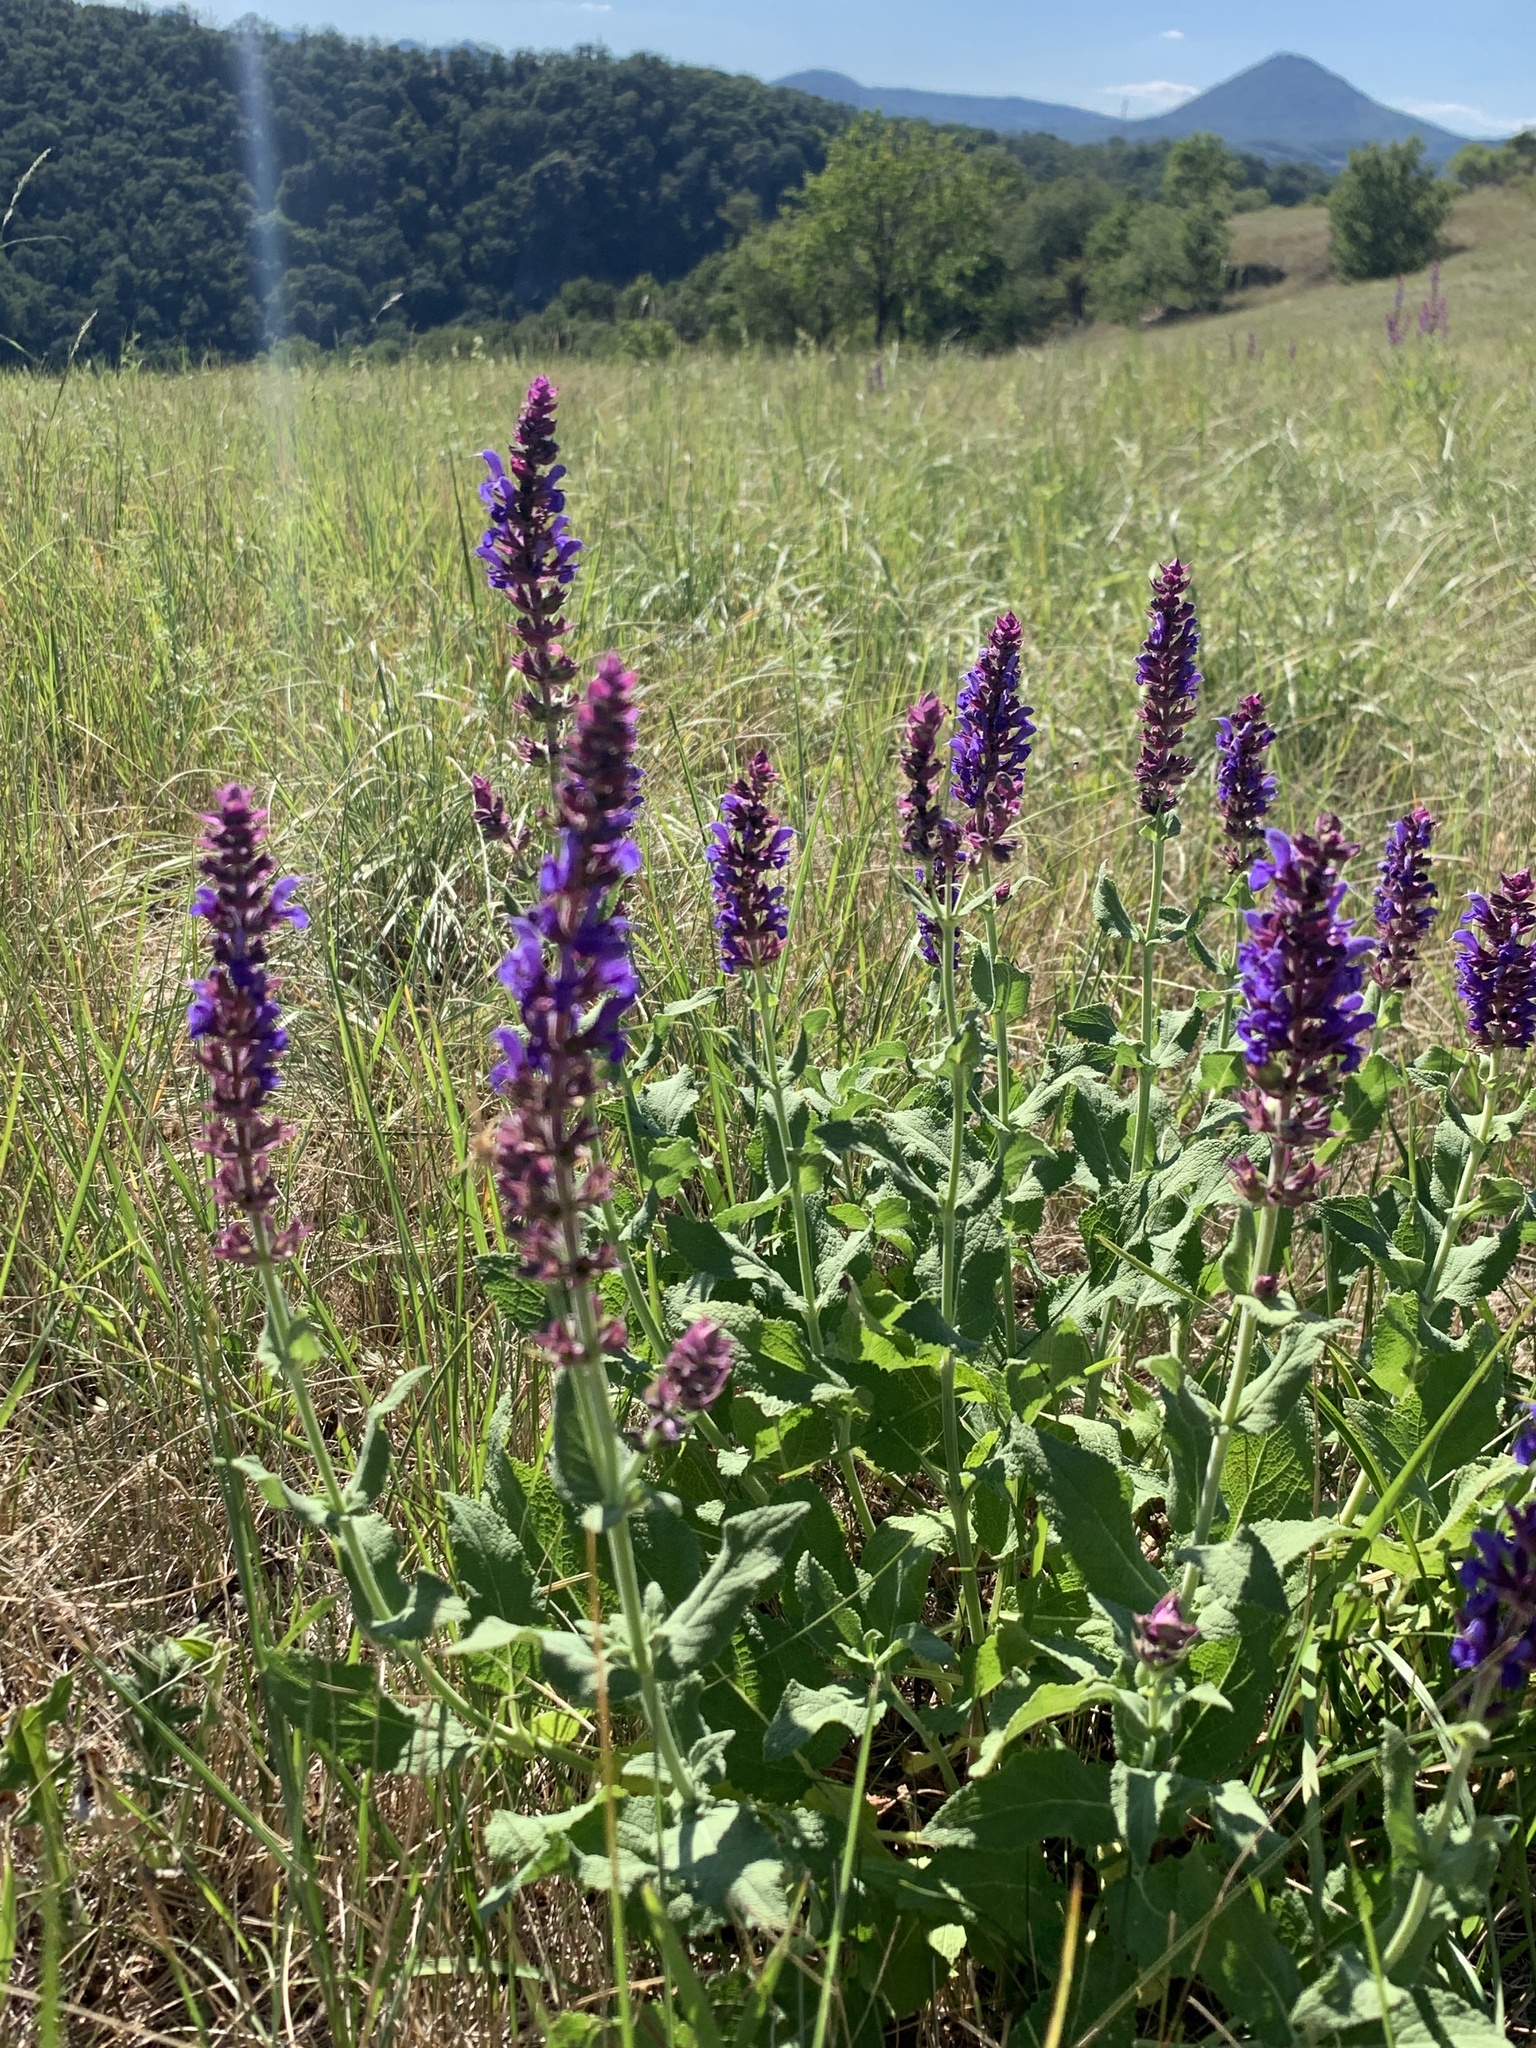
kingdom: Plantae
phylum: Tracheophyta
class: Magnoliopsida
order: Lamiales
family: Lamiaceae
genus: Salvia
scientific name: Salvia nemorosa
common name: Balkan clary
